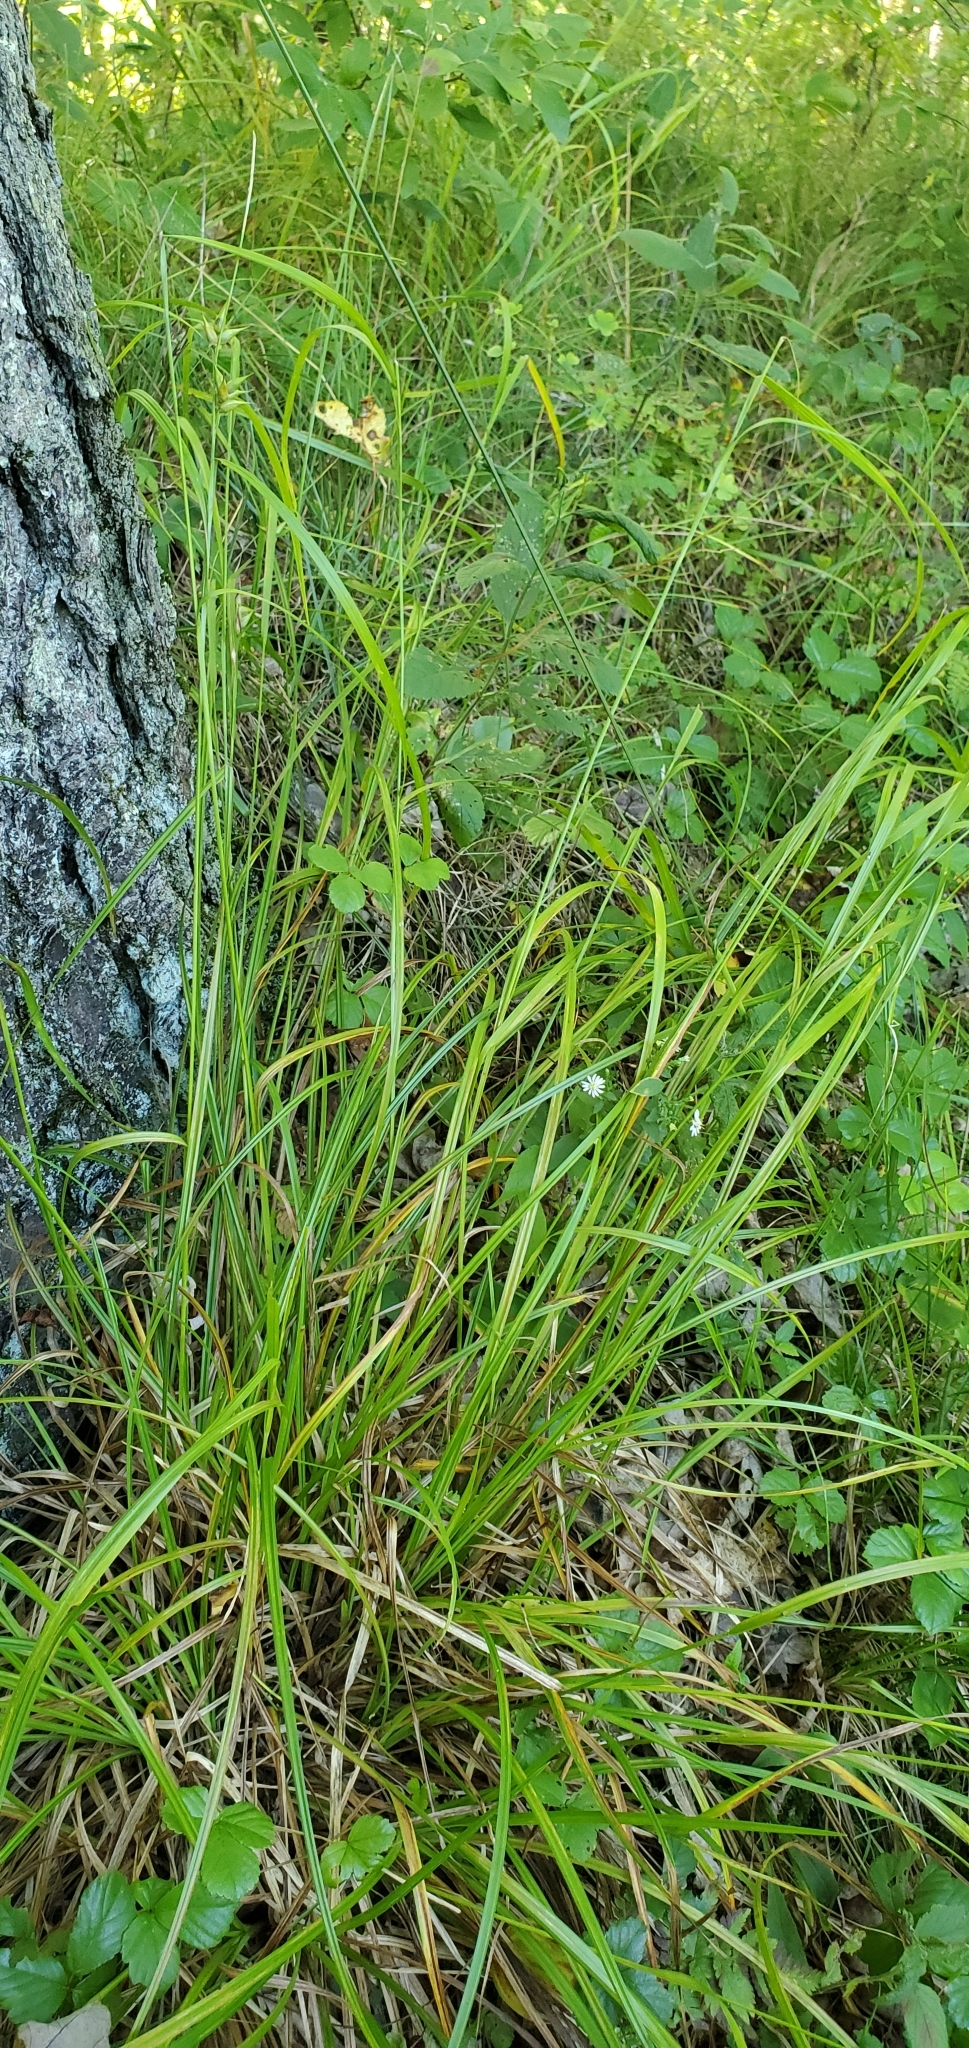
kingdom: Plantae
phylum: Tracheophyta
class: Liliopsida
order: Poales
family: Cyperaceae
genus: Carex
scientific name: Carex intumescens
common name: Greater bladder sedge
